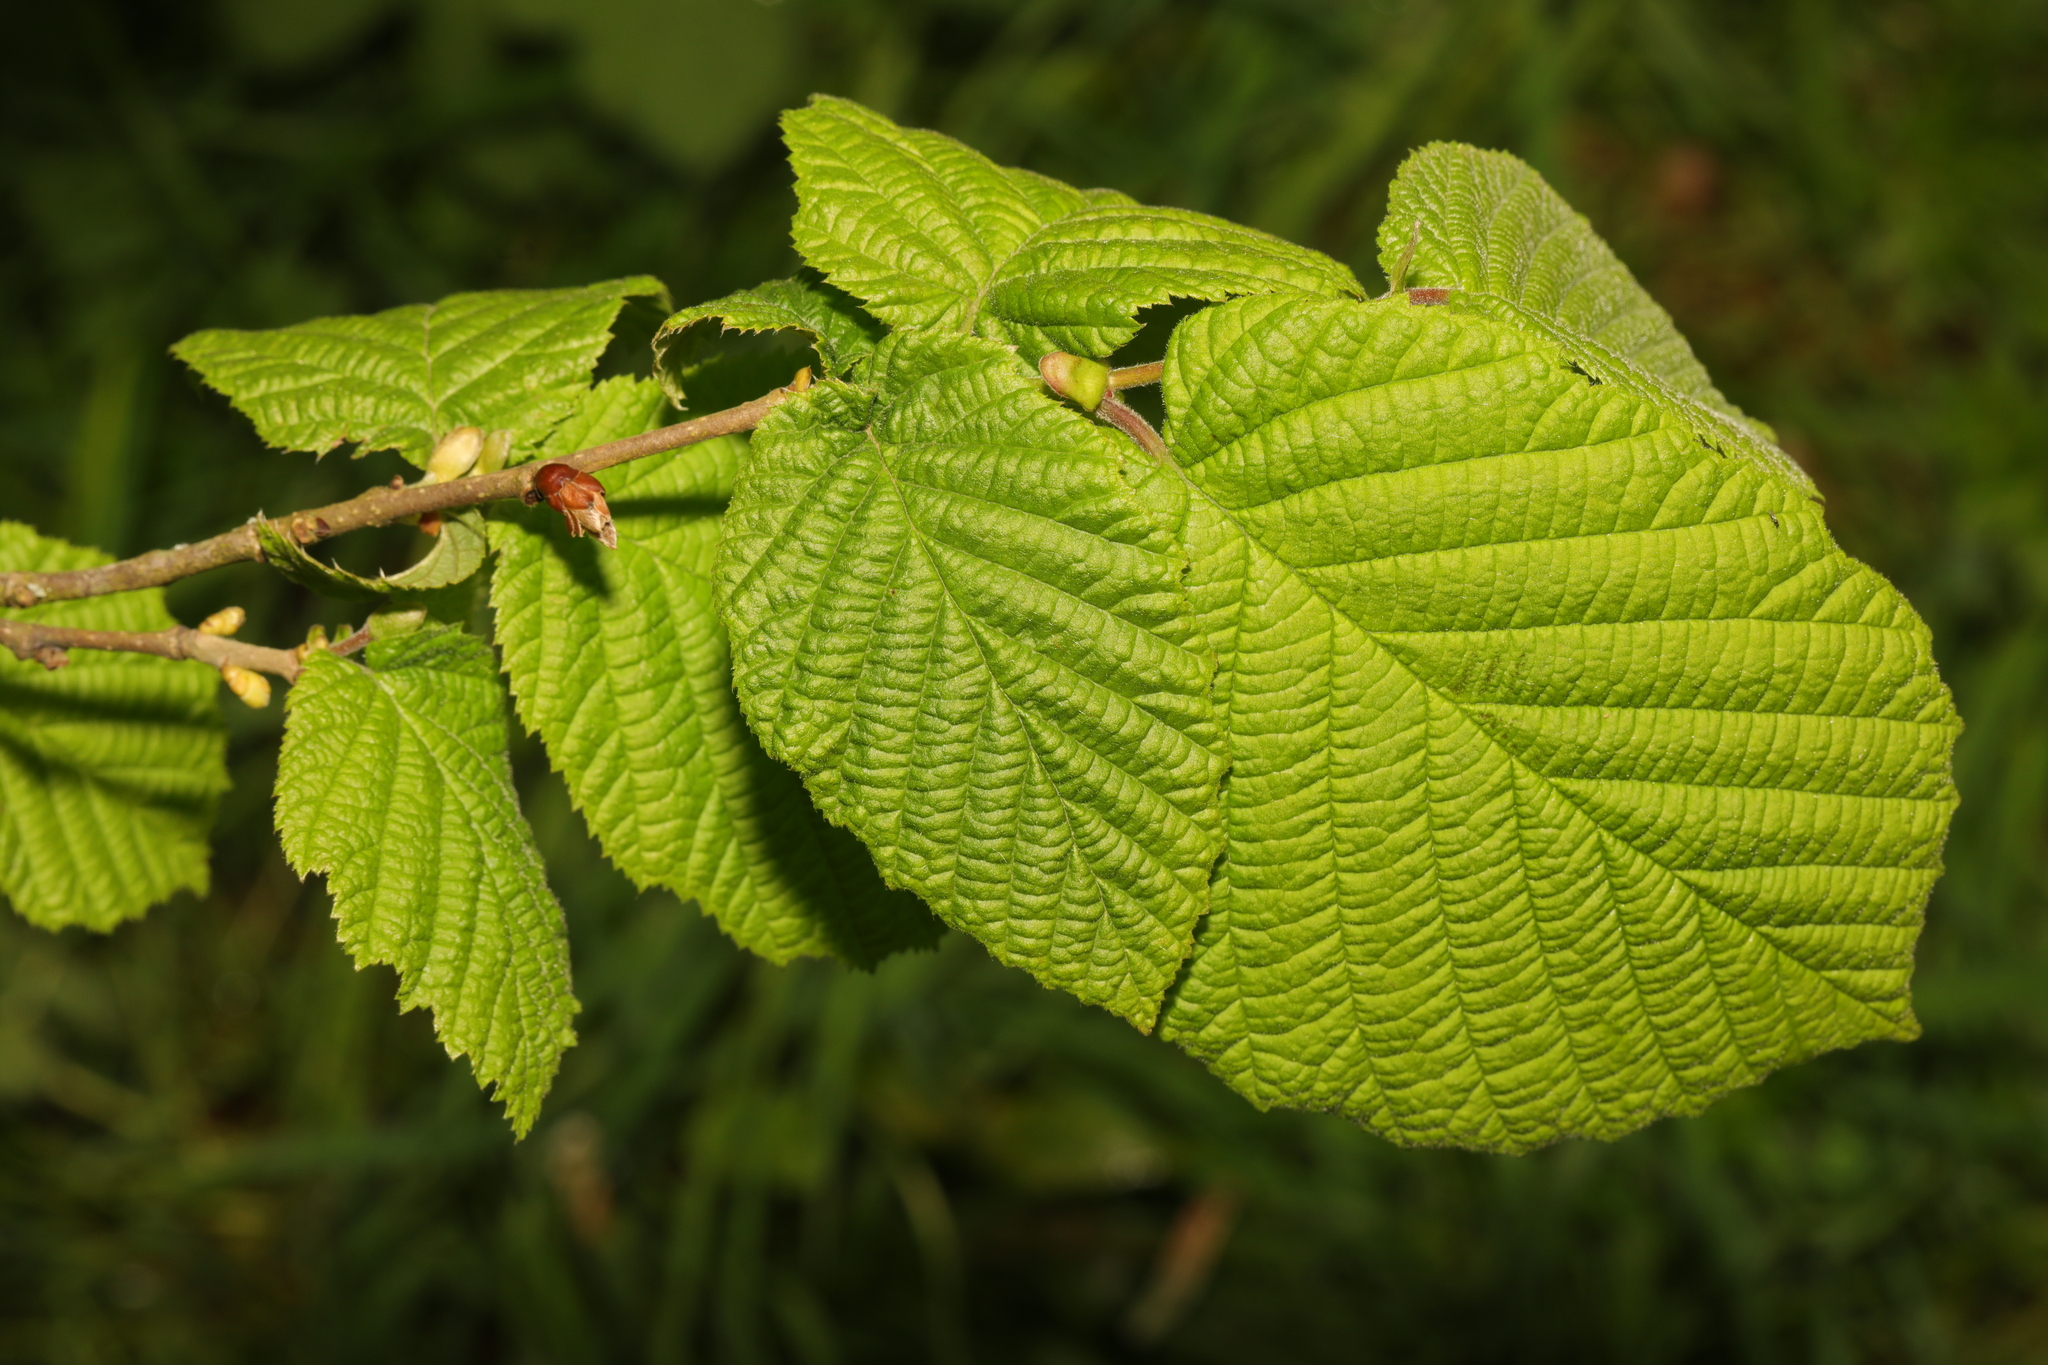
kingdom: Plantae
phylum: Tracheophyta
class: Magnoliopsida
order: Fagales
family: Betulaceae
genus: Corylus
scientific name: Corylus avellana
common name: European hazel
